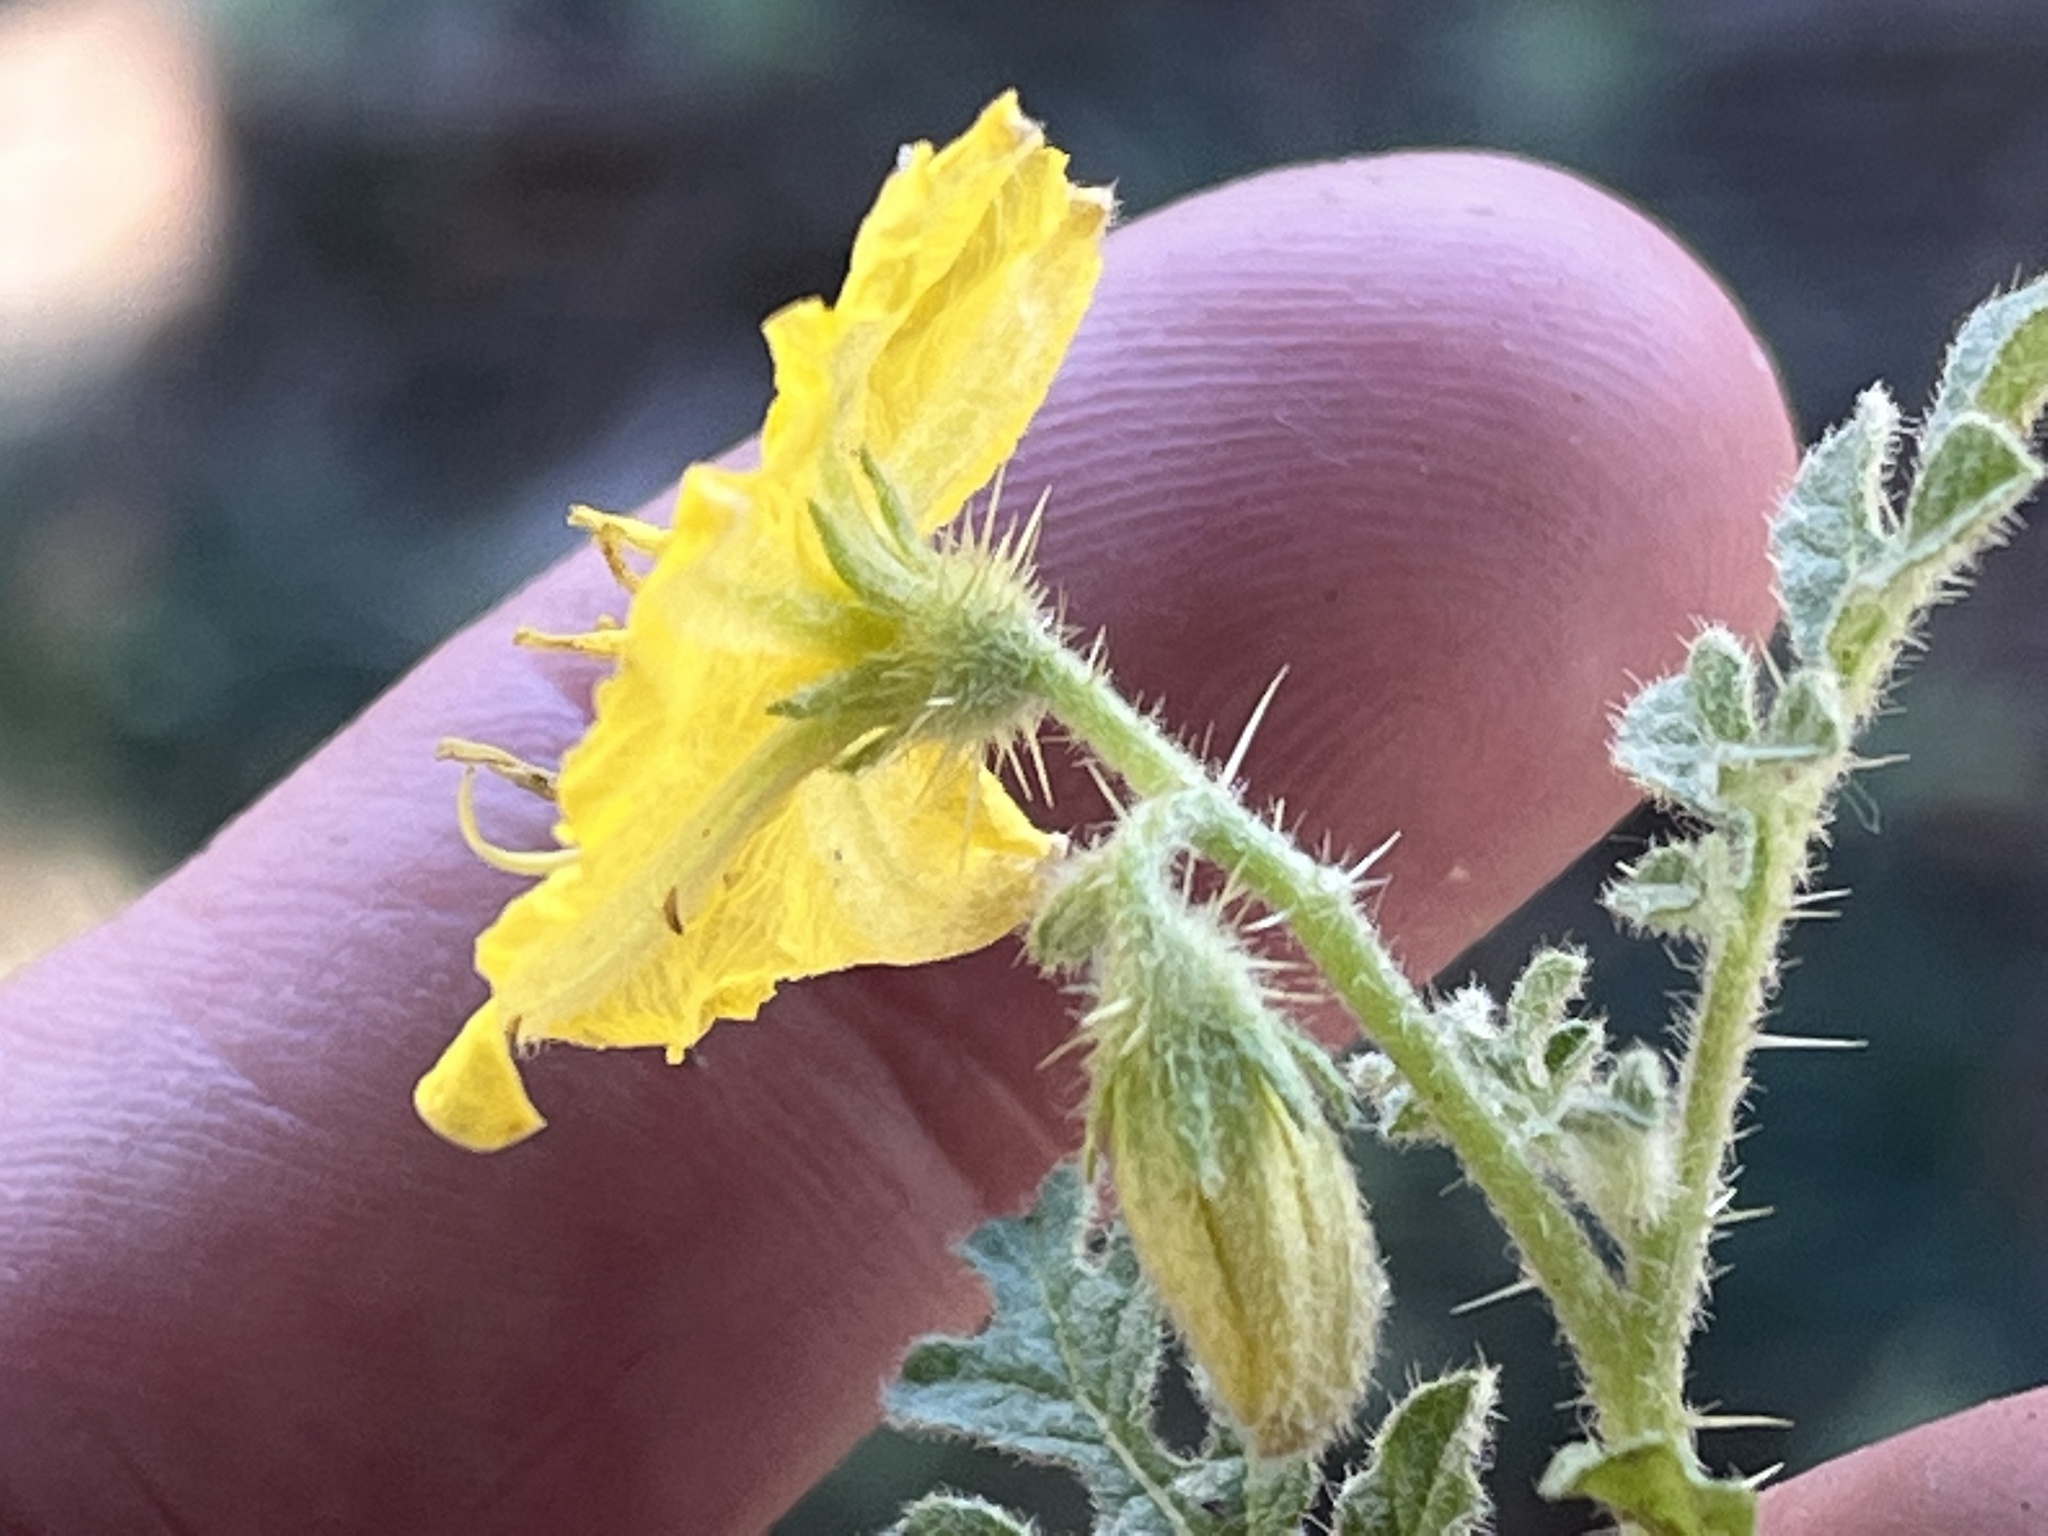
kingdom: Plantae
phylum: Tracheophyta
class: Magnoliopsida
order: Solanales
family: Solanaceae
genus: Solanum
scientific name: Solanum angustifolium
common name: Buffalobur nightshade
